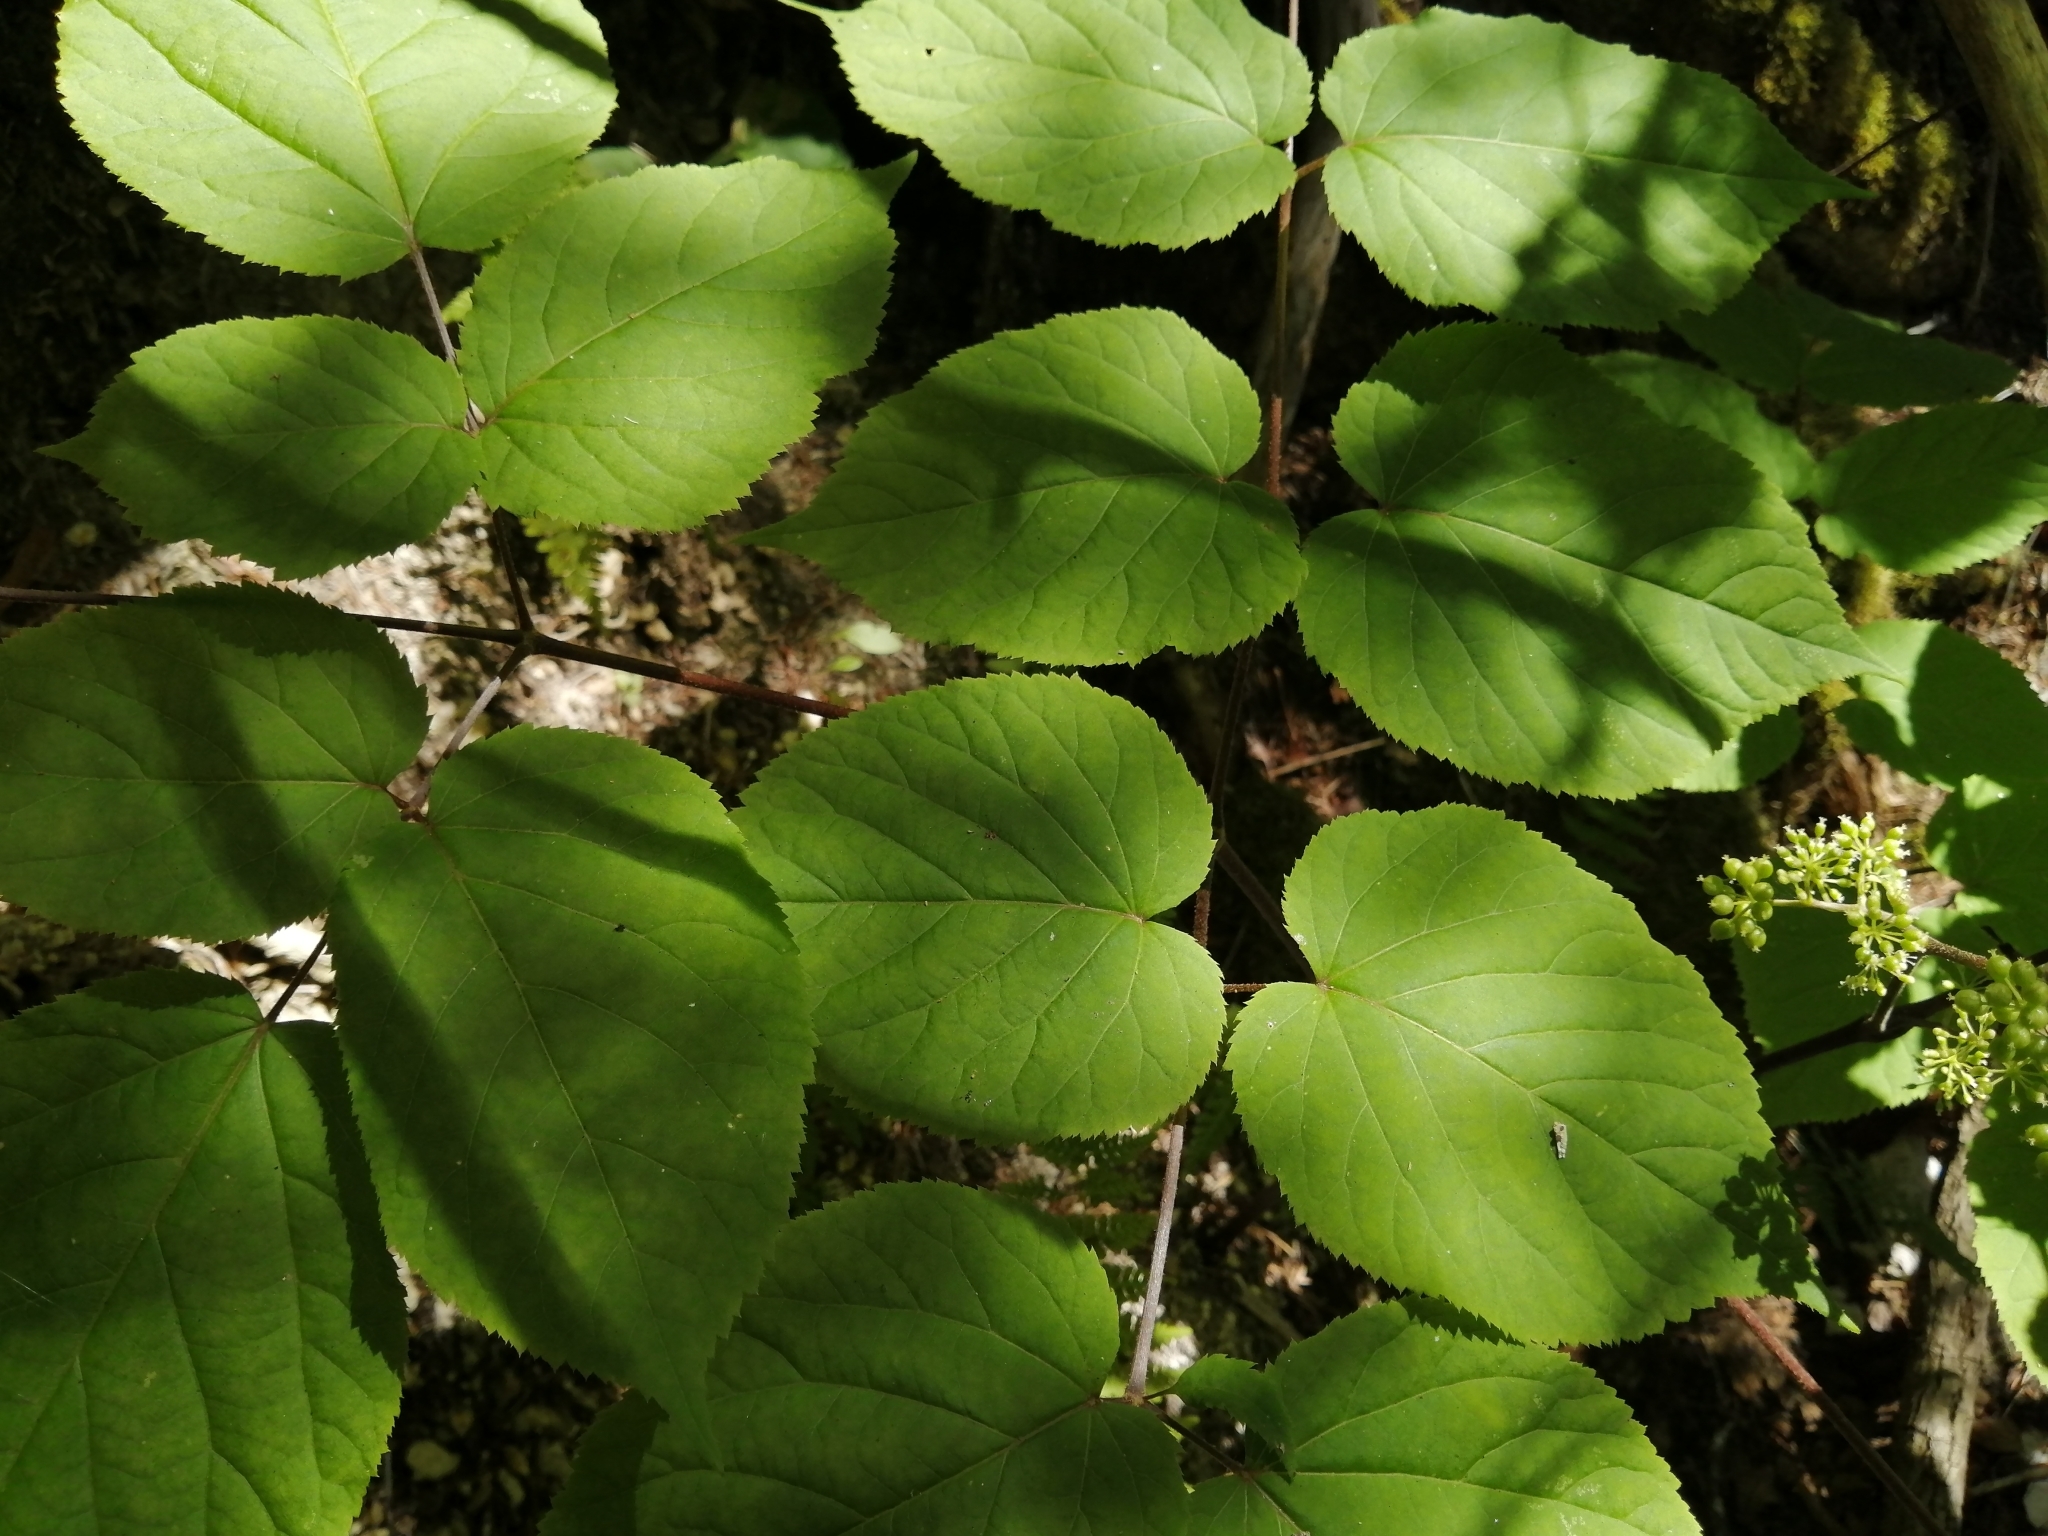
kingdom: Plantae
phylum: Tracheophyta
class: Magnoliopsida
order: Apiales
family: Araliaceae
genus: Aralia
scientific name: Aralia racemosa
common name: American-spikenard
